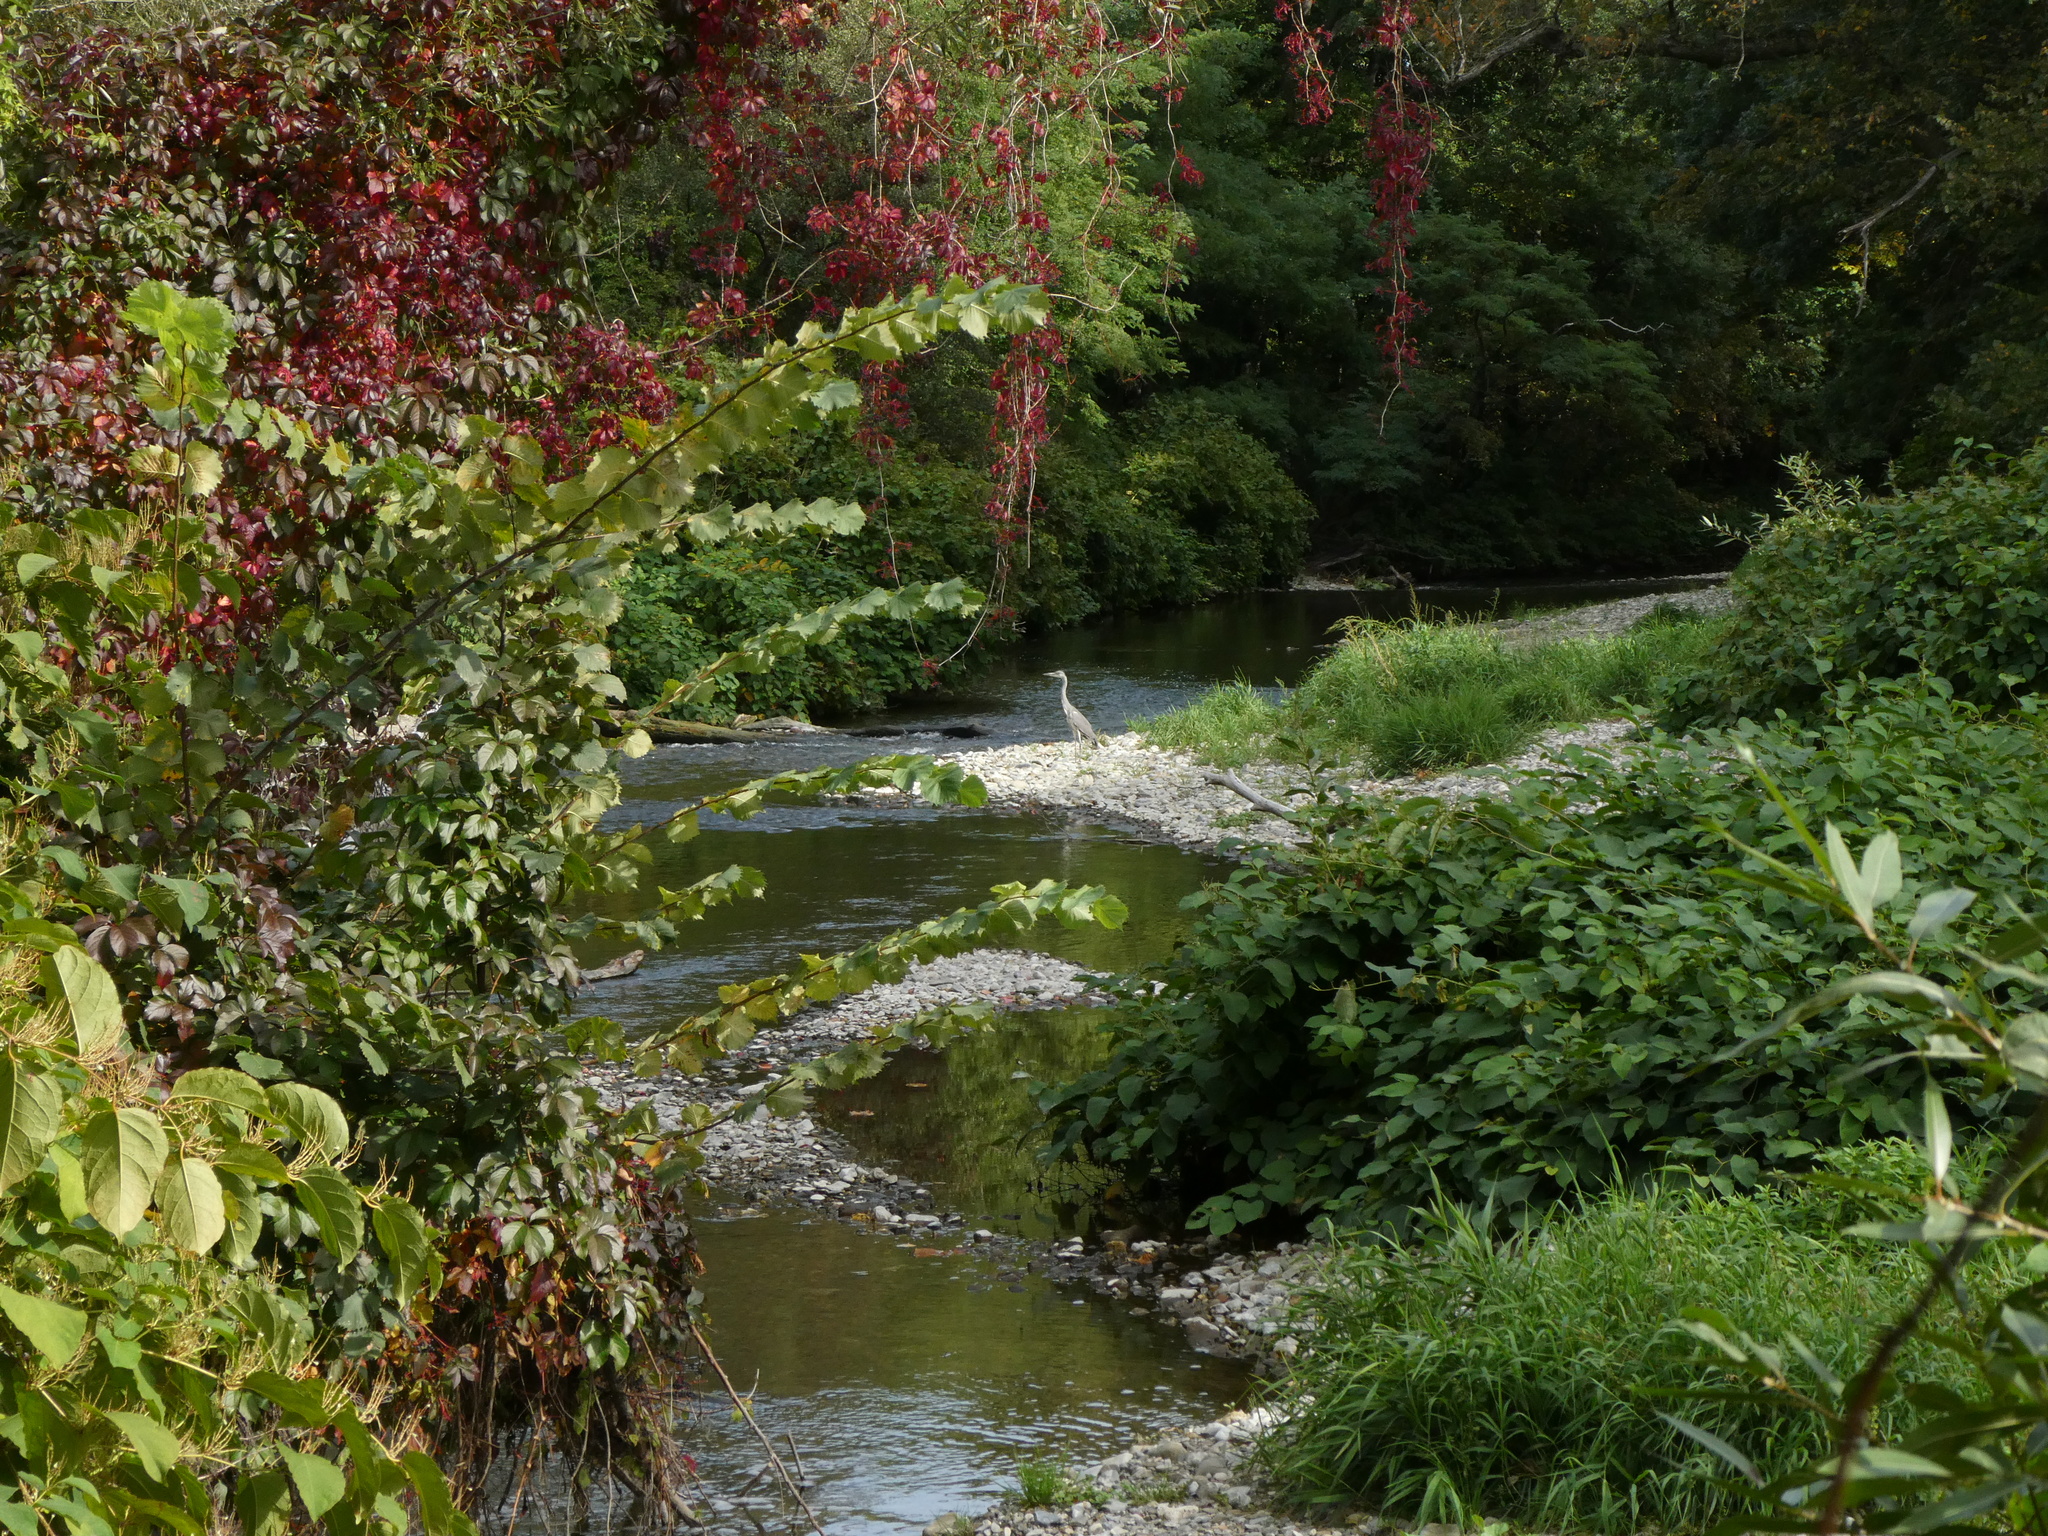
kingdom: Animalia
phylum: Chordata
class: Aves
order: Pelecaniformes
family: Ardeidae
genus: Ardea
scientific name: Ardea cinerea
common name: Grey heron
